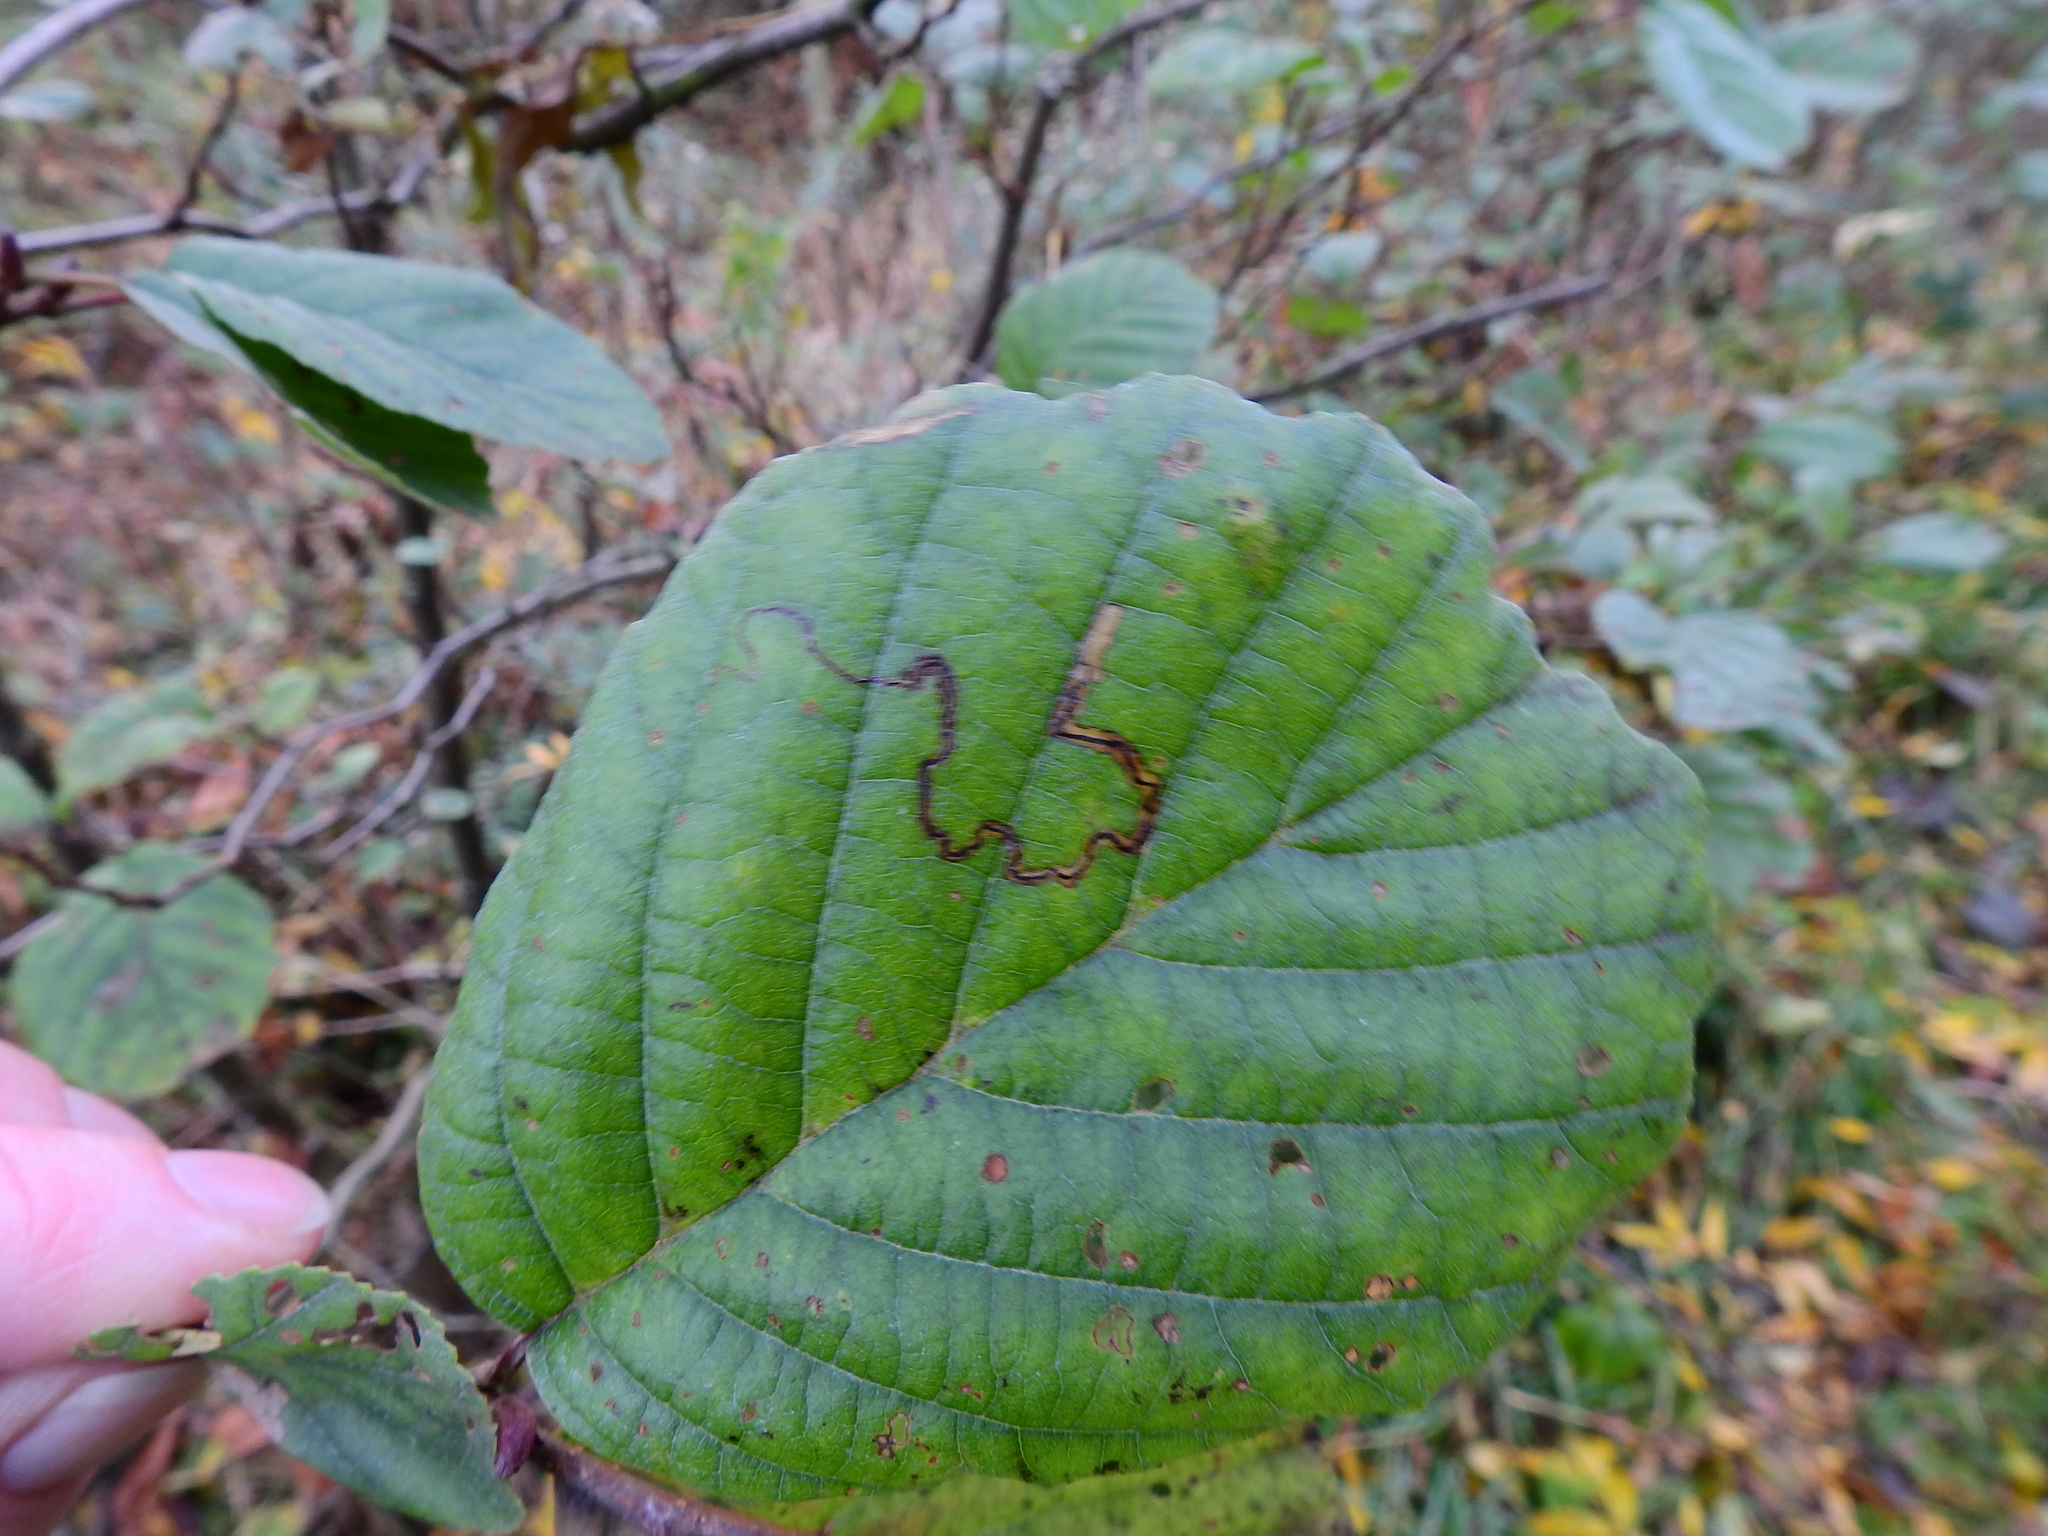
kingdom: Animalia
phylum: Arthropoda
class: Insecta
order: Lepidoptera
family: Nepticulidae
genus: Stigmella
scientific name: Stigmella alnetella
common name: Silver-barred alder pigmy
